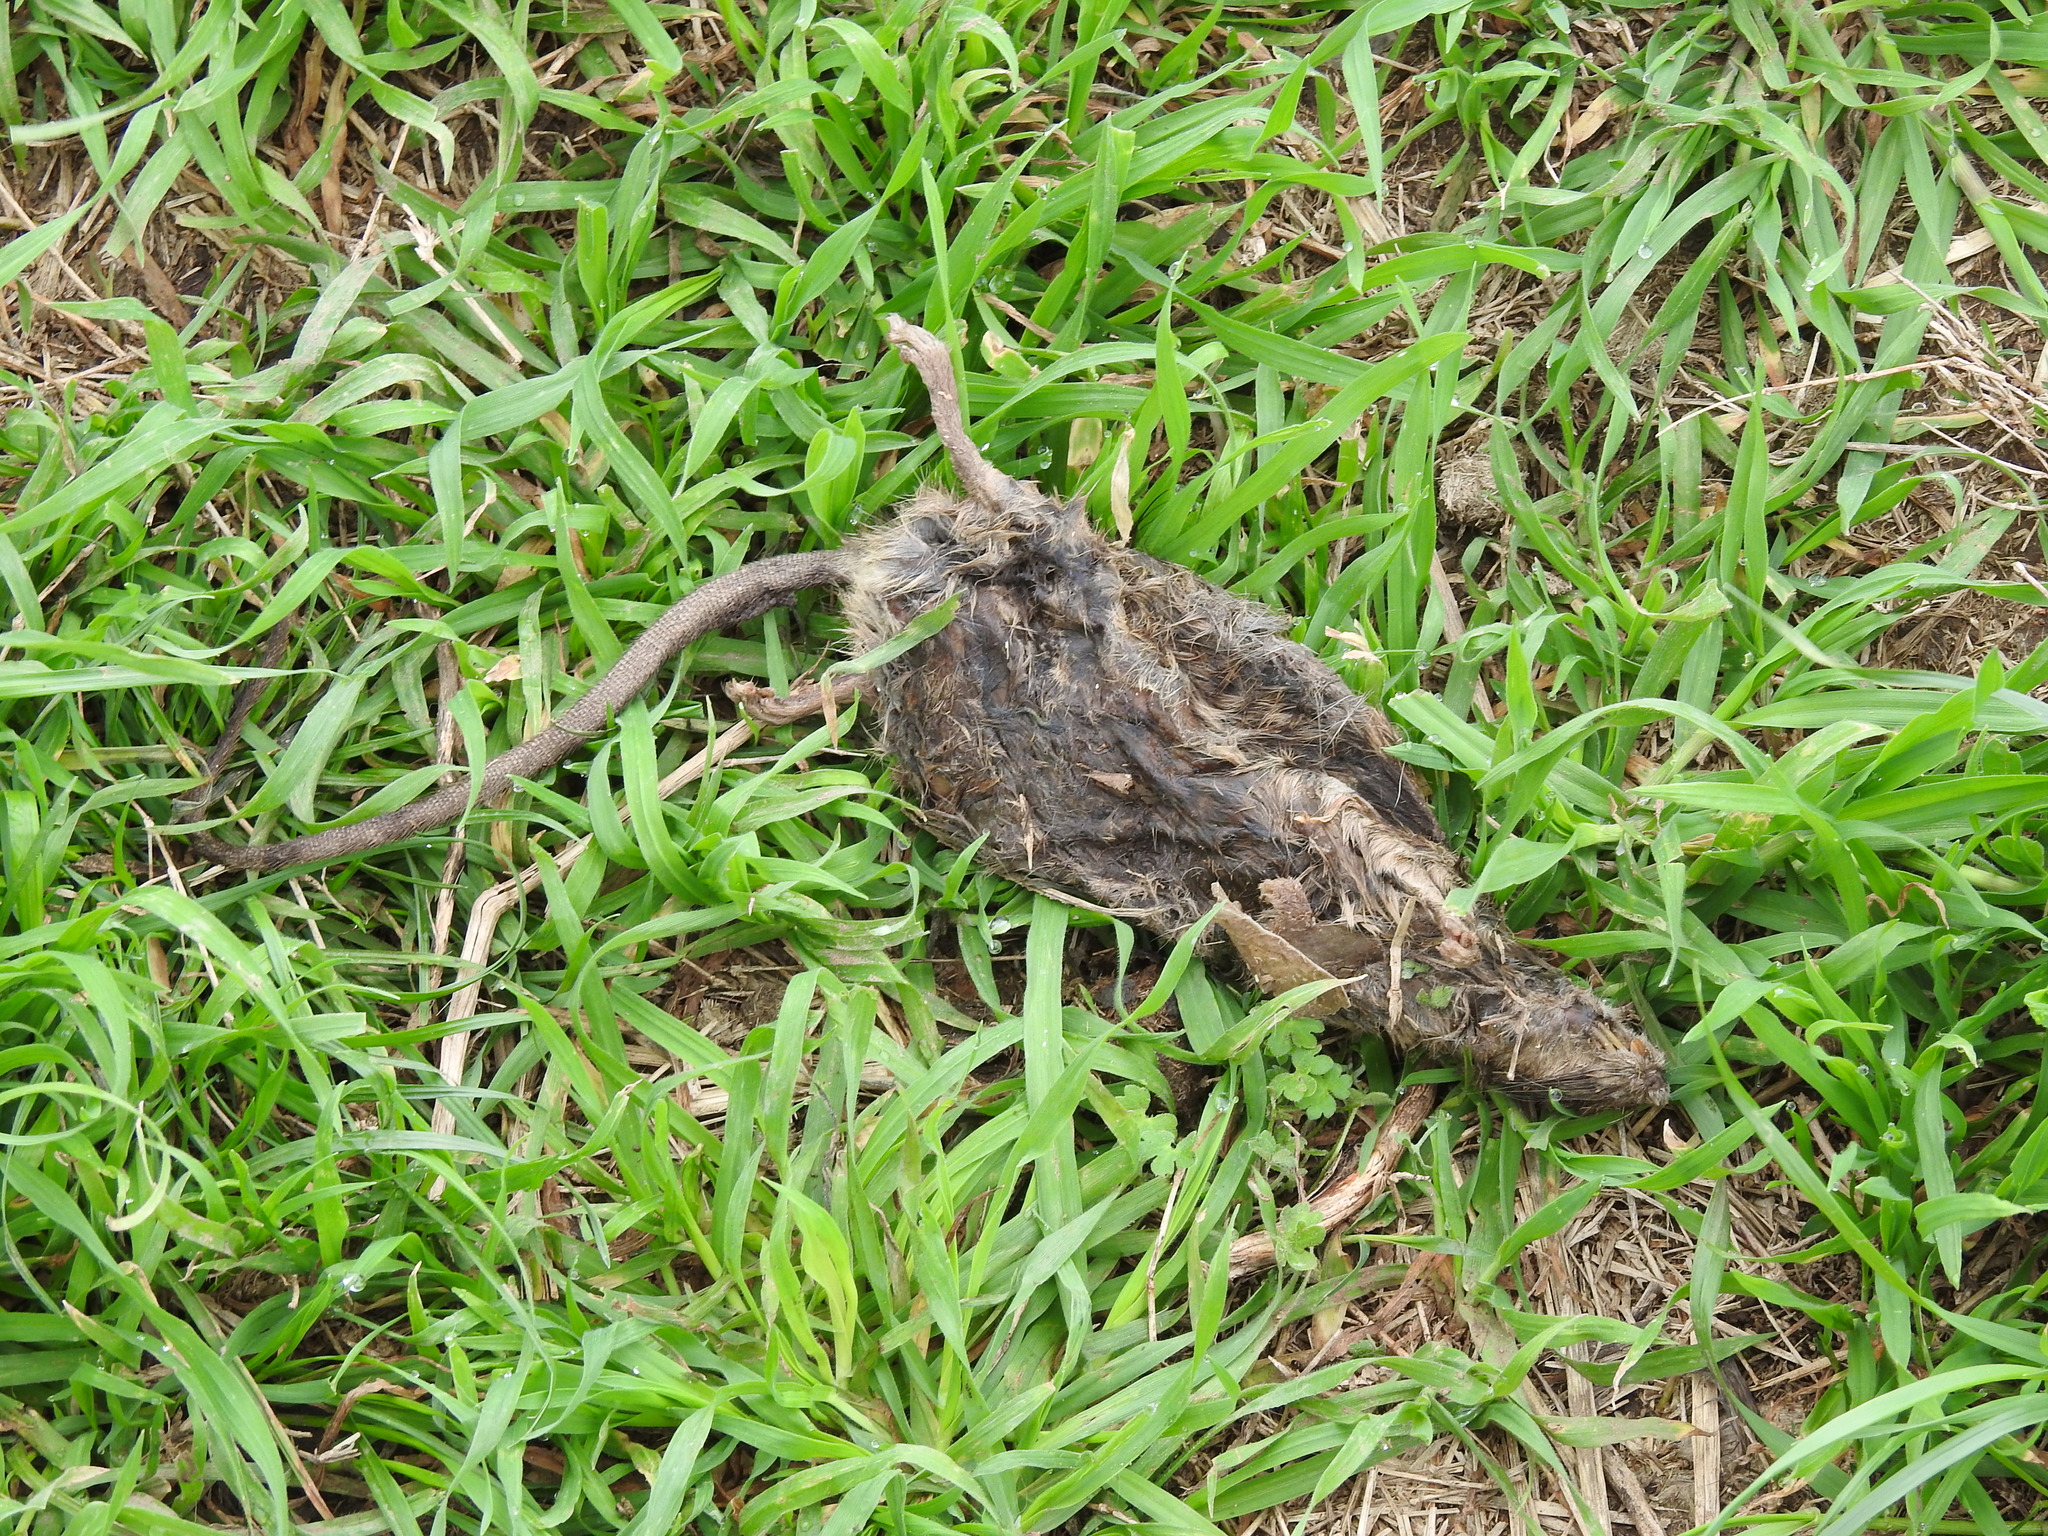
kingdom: Animalia
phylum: Chordata
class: Mammalia
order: Rodentia
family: Muridae
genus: Rattus
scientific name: Rattus norvegicus
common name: Brown rat
